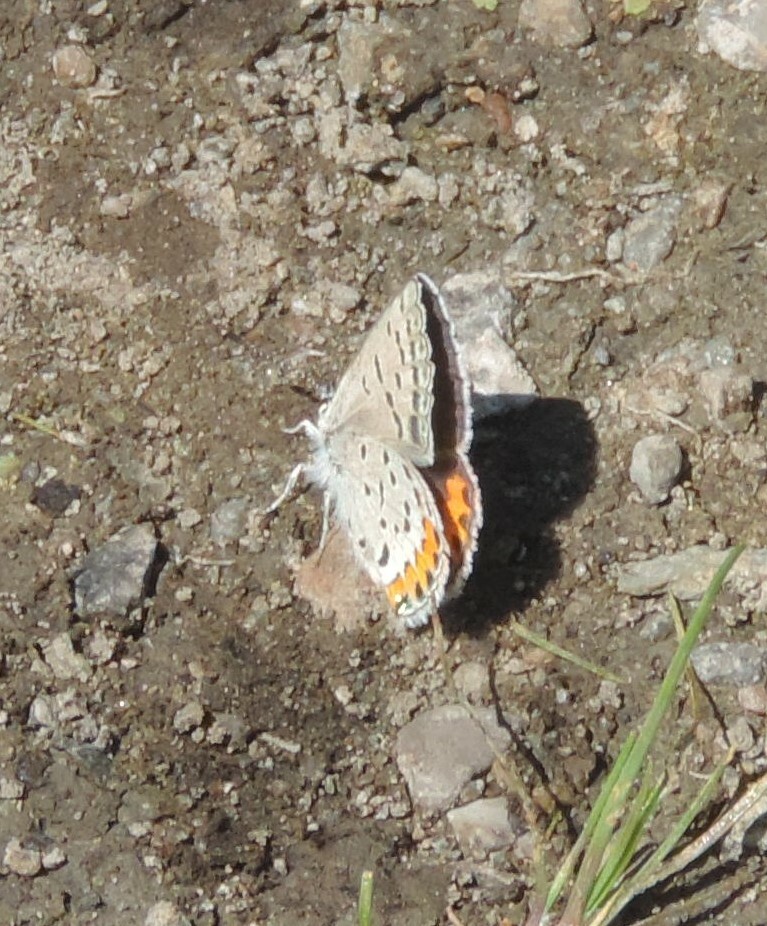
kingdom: Animalia
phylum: Arthropoda
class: Insecta
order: Lepidoptera
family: Lycaenidae
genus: Icaricia
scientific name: Icaricia lupini
